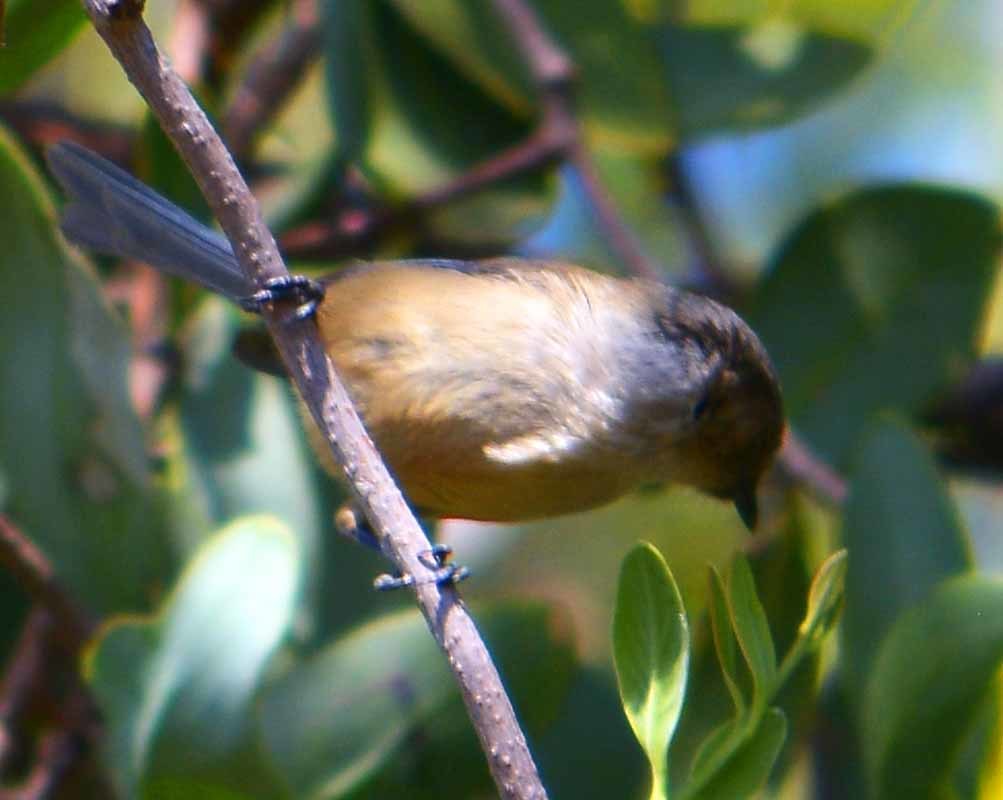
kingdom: Animalia
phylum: Chordata
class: Aves
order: Passeriformes
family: Aegithalidae
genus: Psaltriparus
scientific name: Psaltriparus minimus
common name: American bushtit
